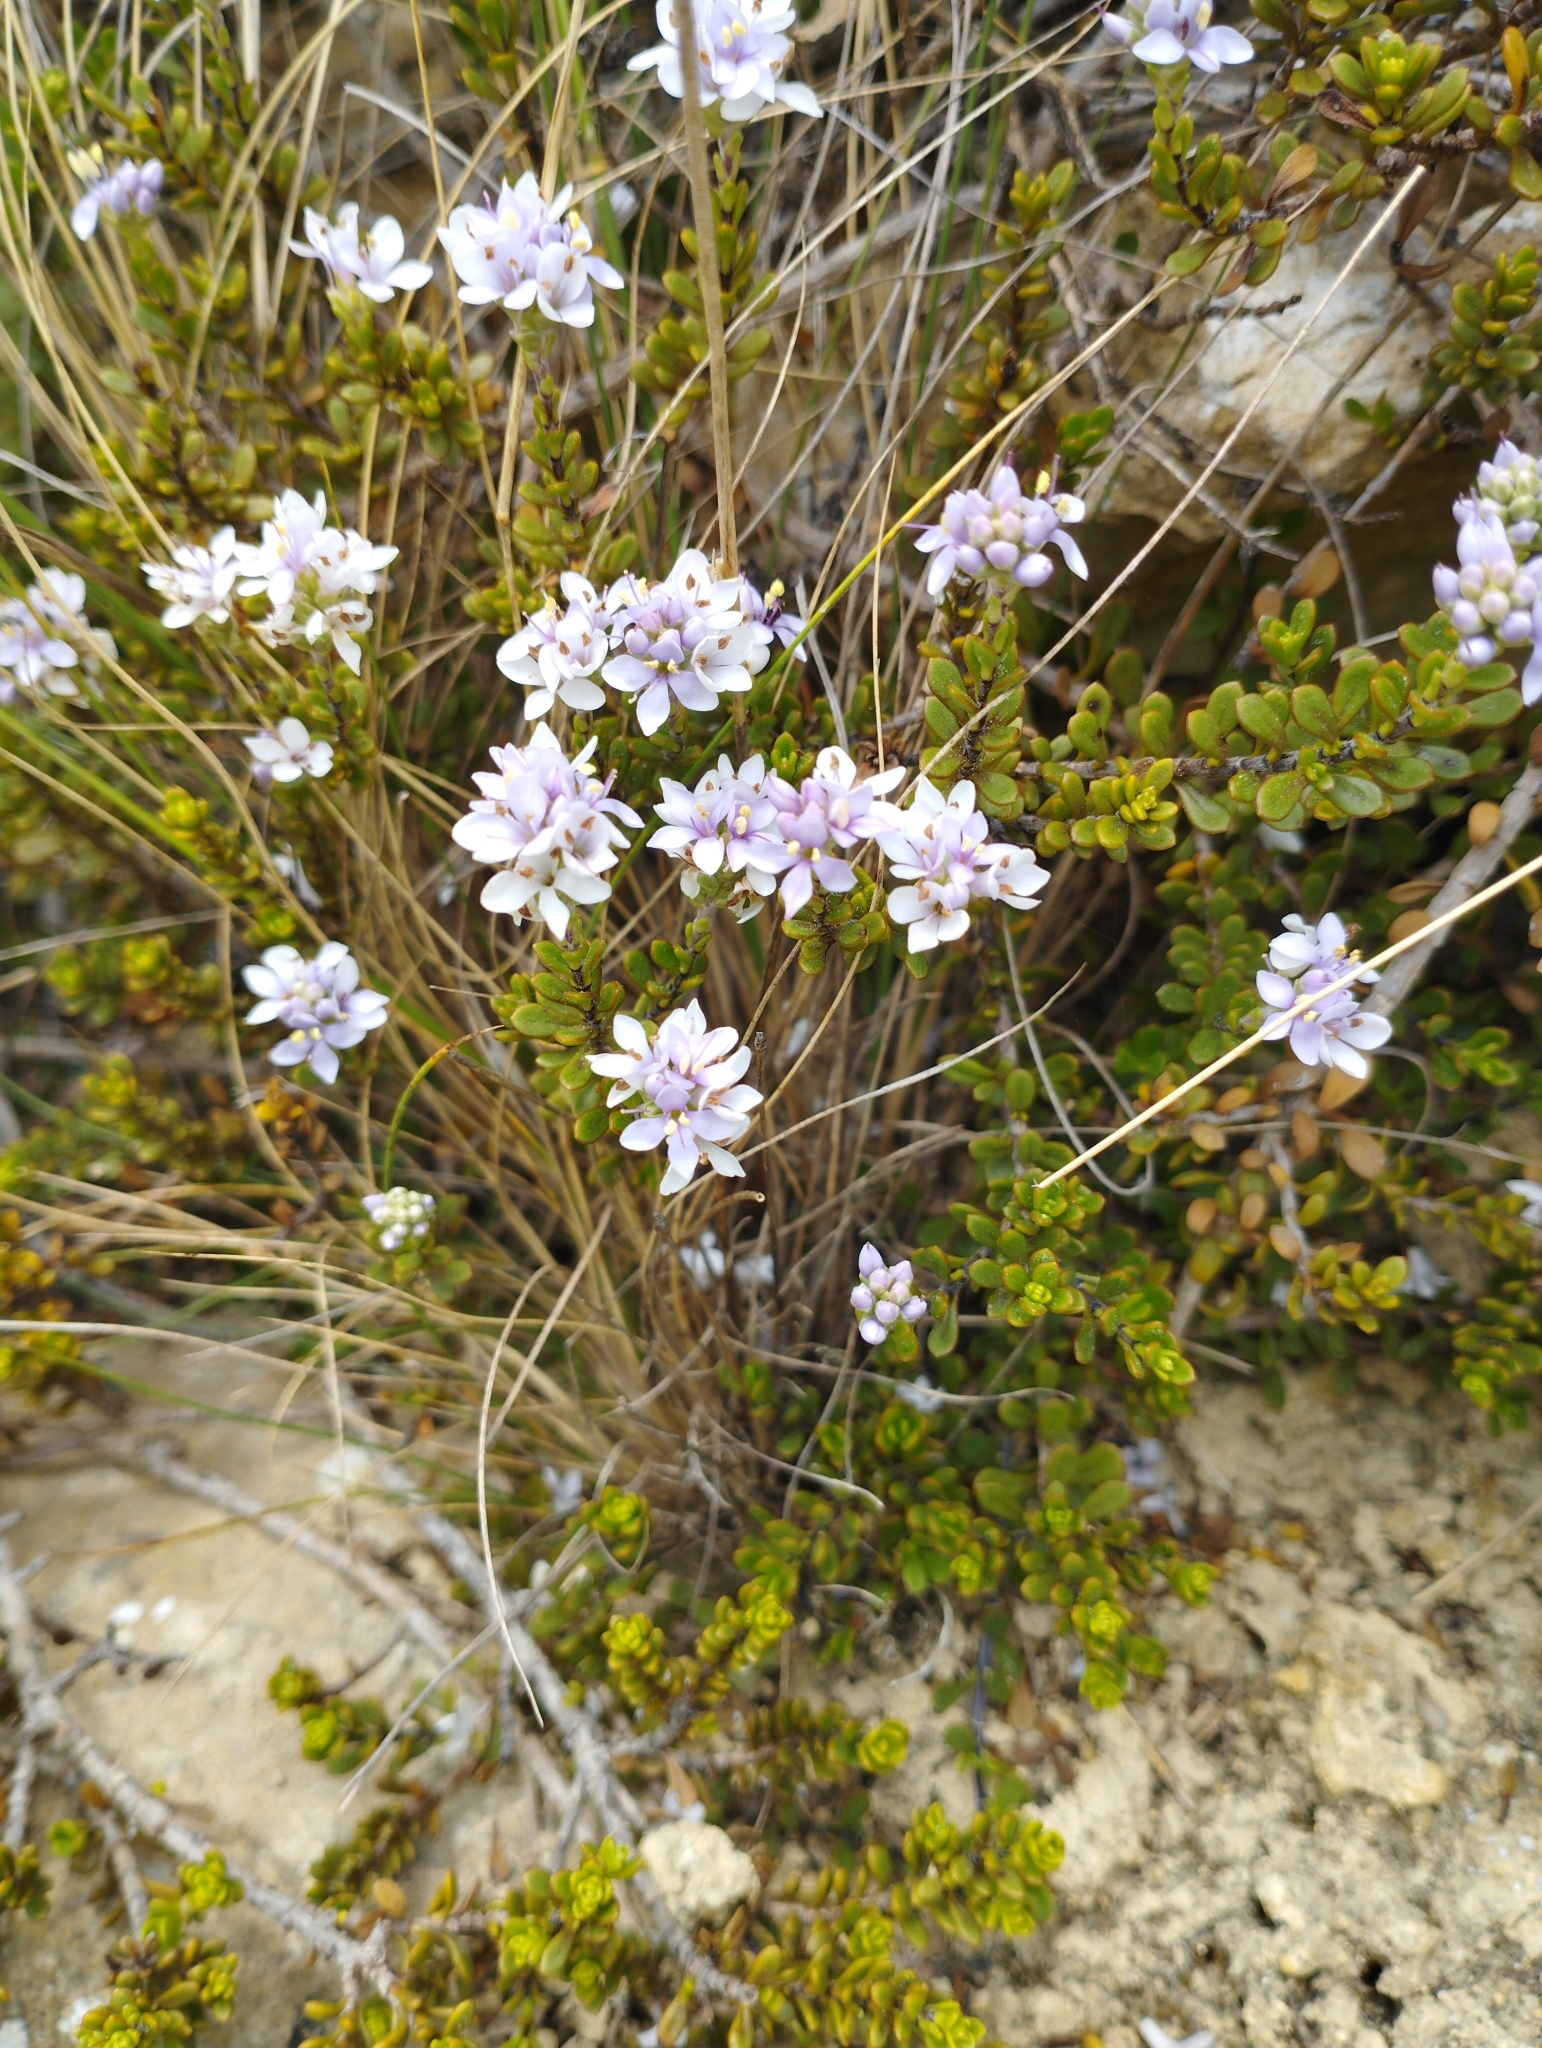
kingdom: Plantae
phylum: Tracheophyta
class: Magnoliopsida
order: Lamiales
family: Plantaginaceae
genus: Veronica
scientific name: Veronica maccaskillii
